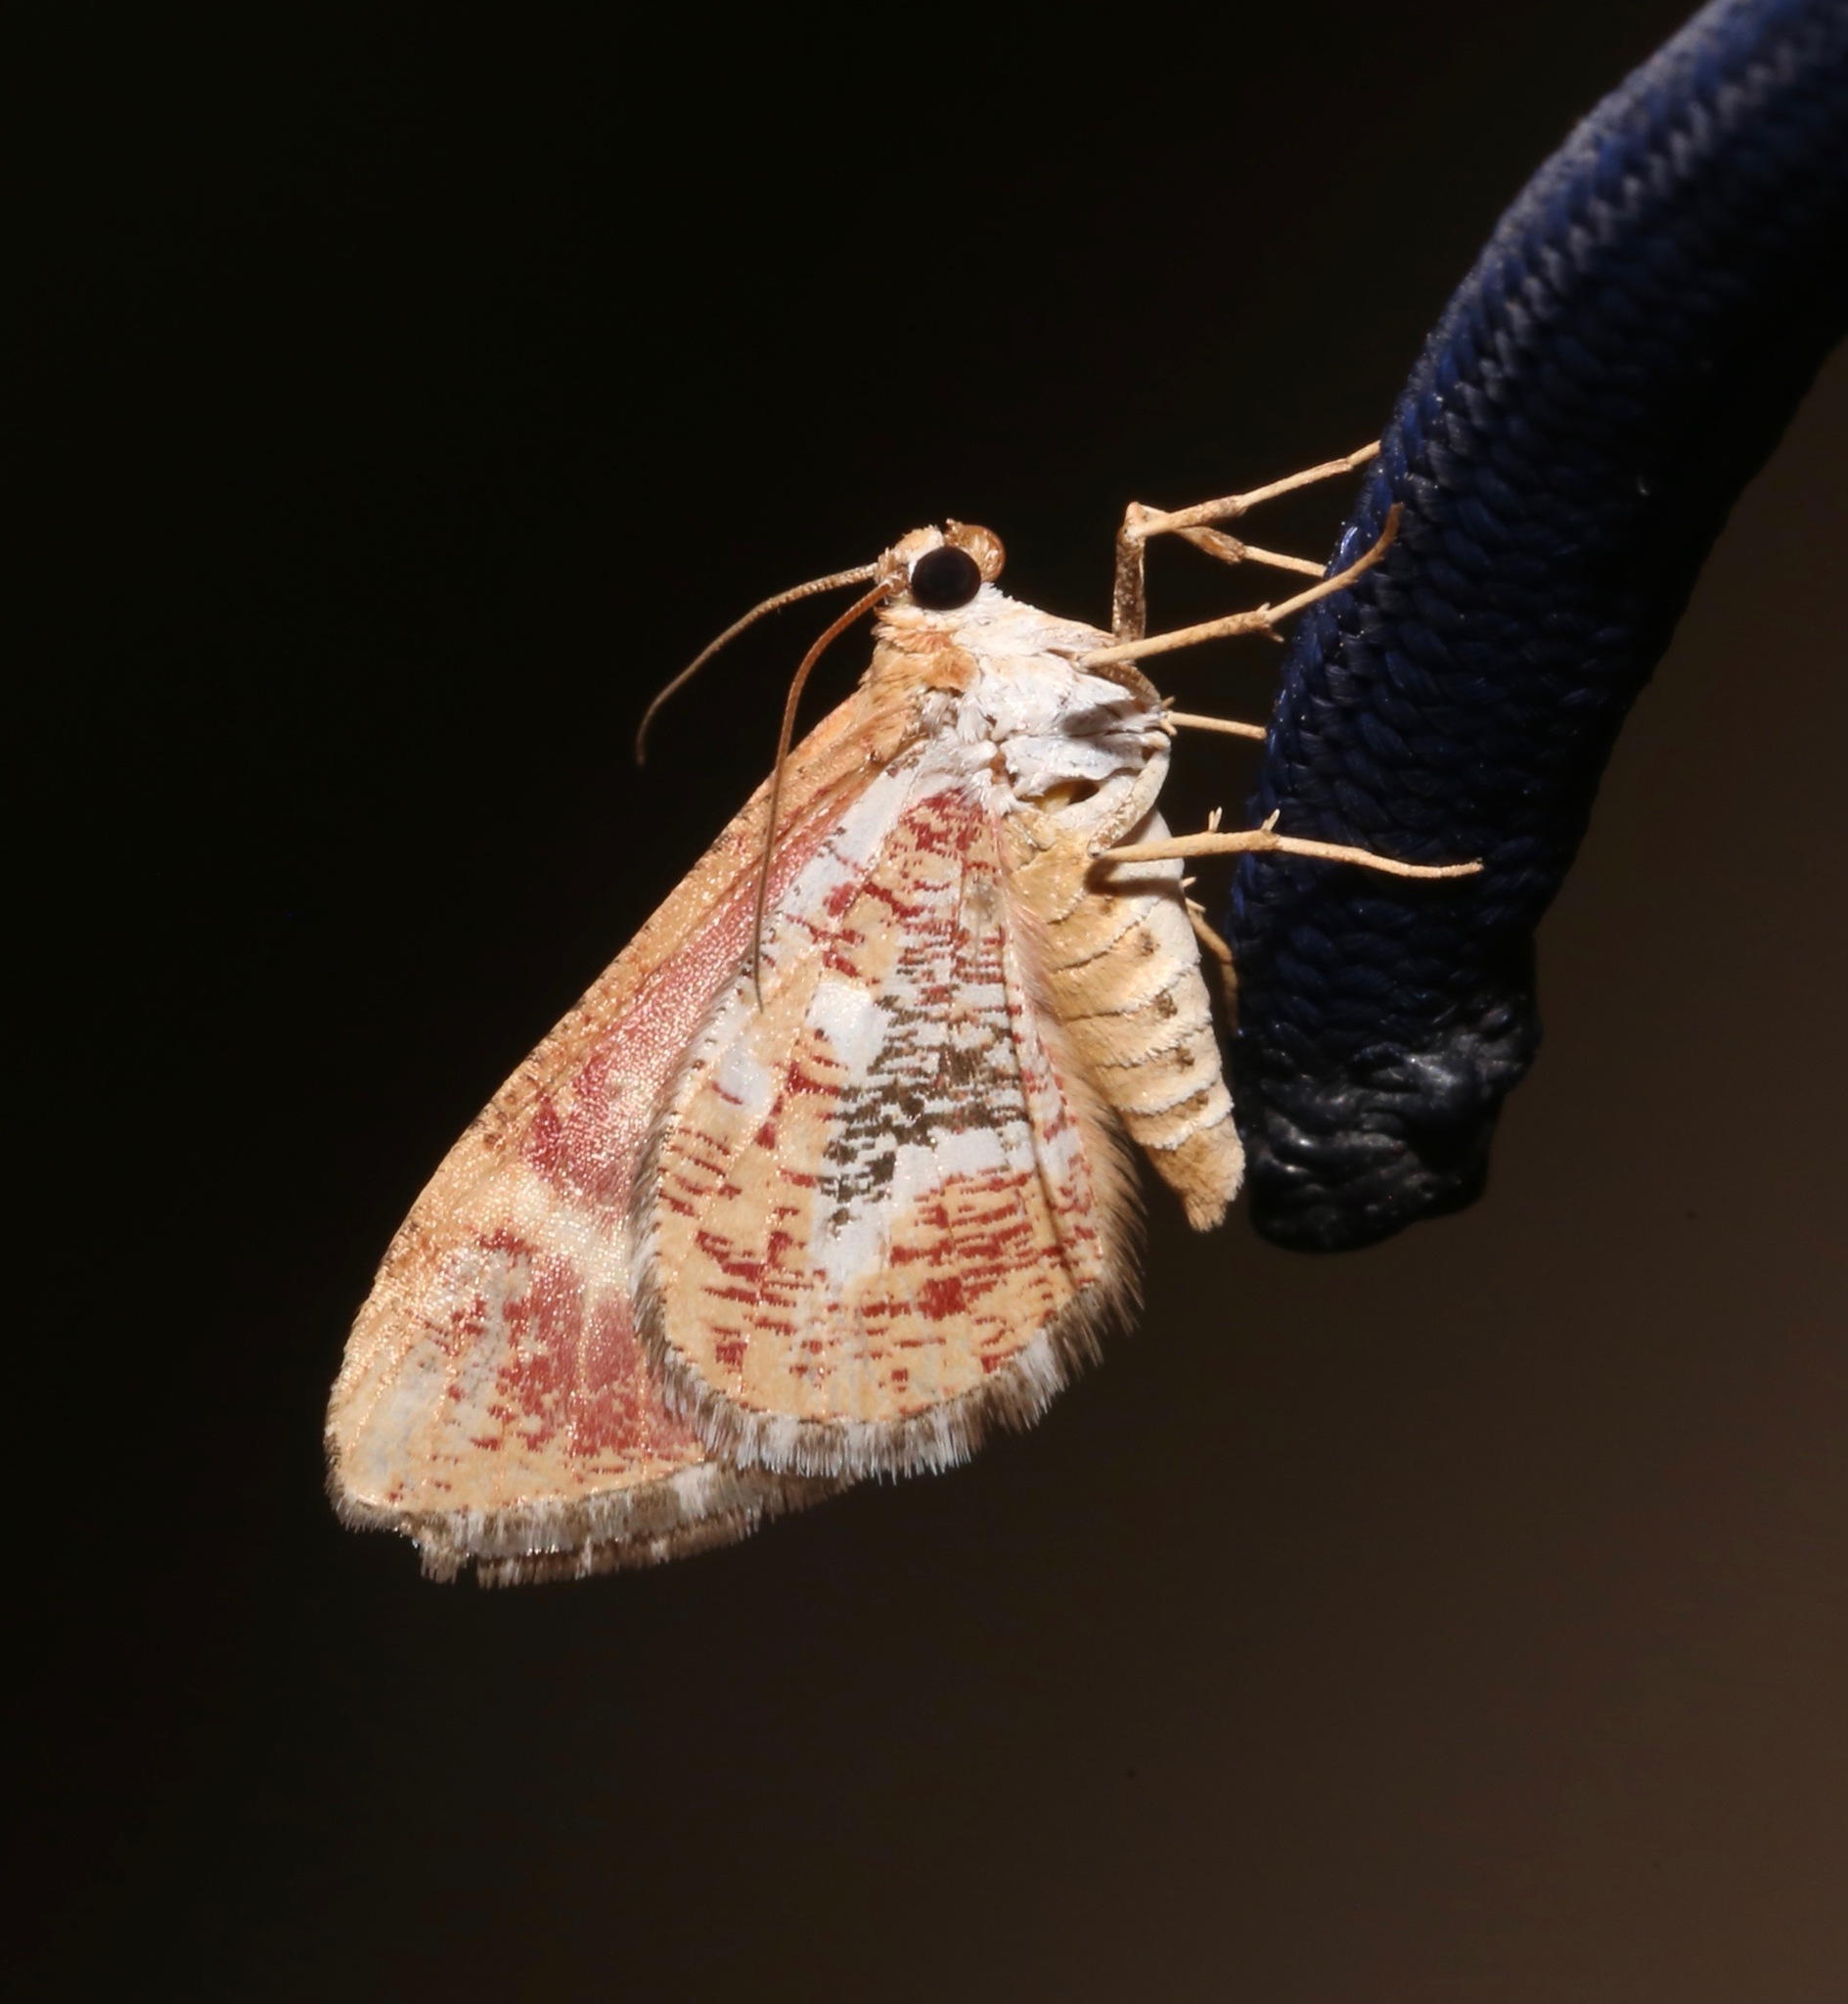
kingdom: Animalia
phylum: Arthropoda
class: Insecta
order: Lepidoptera
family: Geometridae
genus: Stamnodes
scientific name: Stamnodes formosata
